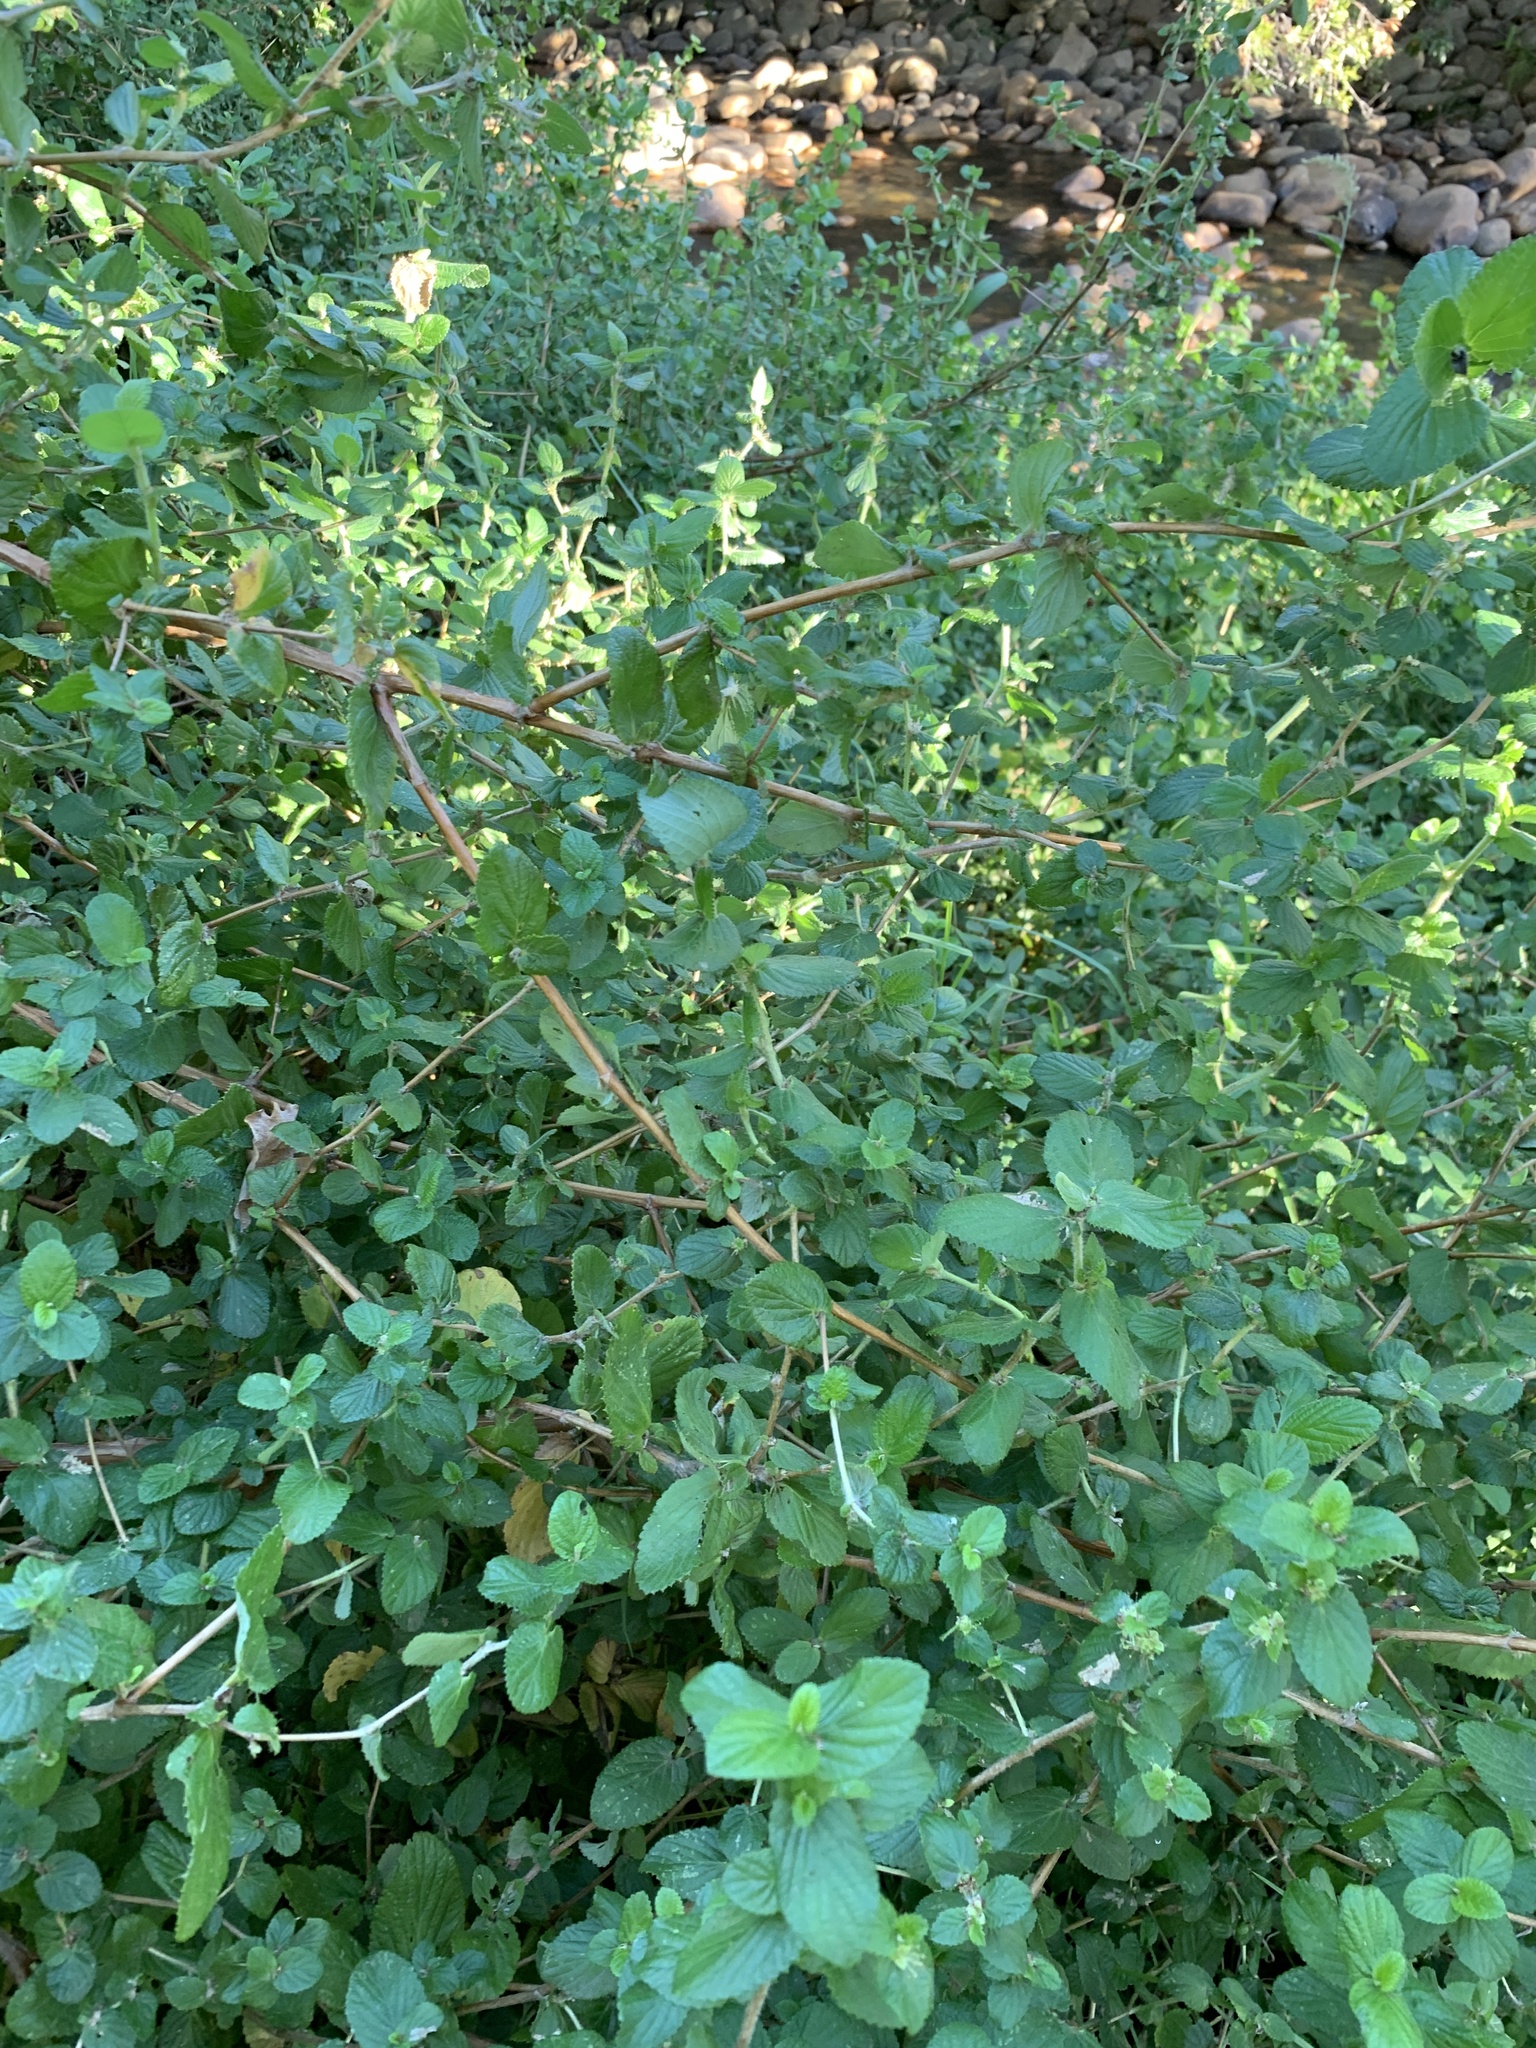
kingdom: Plantae
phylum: Tracheophyta
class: Magnoliopsida
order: Rosales
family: Rosaceae
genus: Cliffortia
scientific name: Cliffortia odorata
